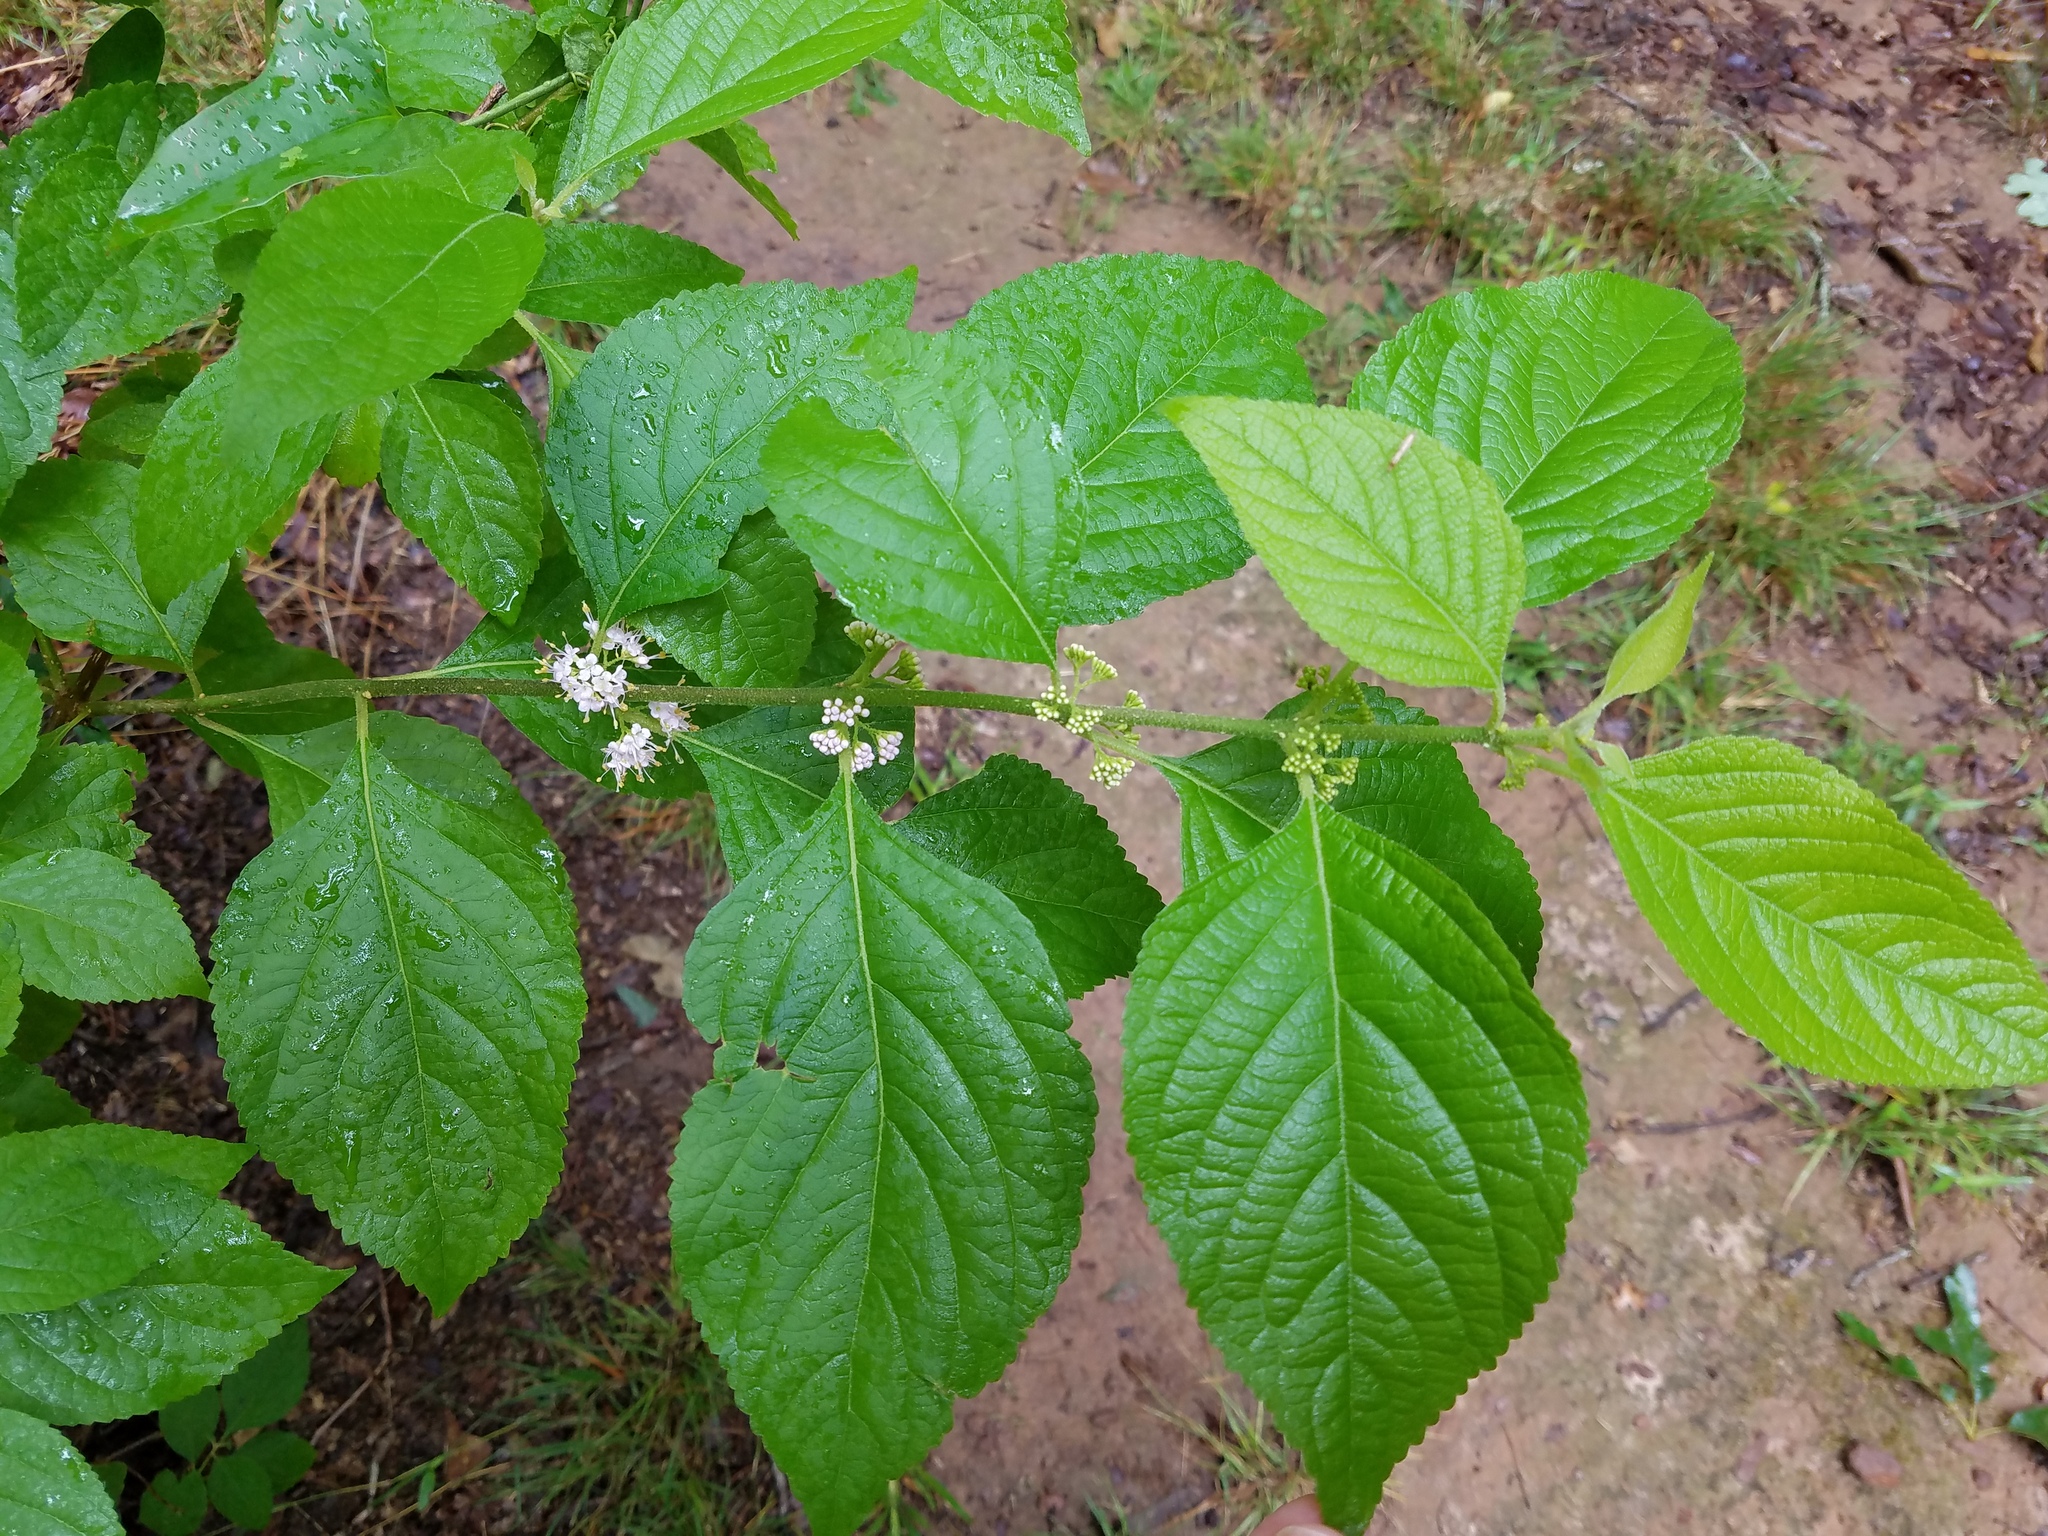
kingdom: Plantae
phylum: Tracheophyta
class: Magnoliopsida
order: Lamiales
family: Lamiaceae
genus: Callicarpa
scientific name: Callicarpa americana
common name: American beautyberry
